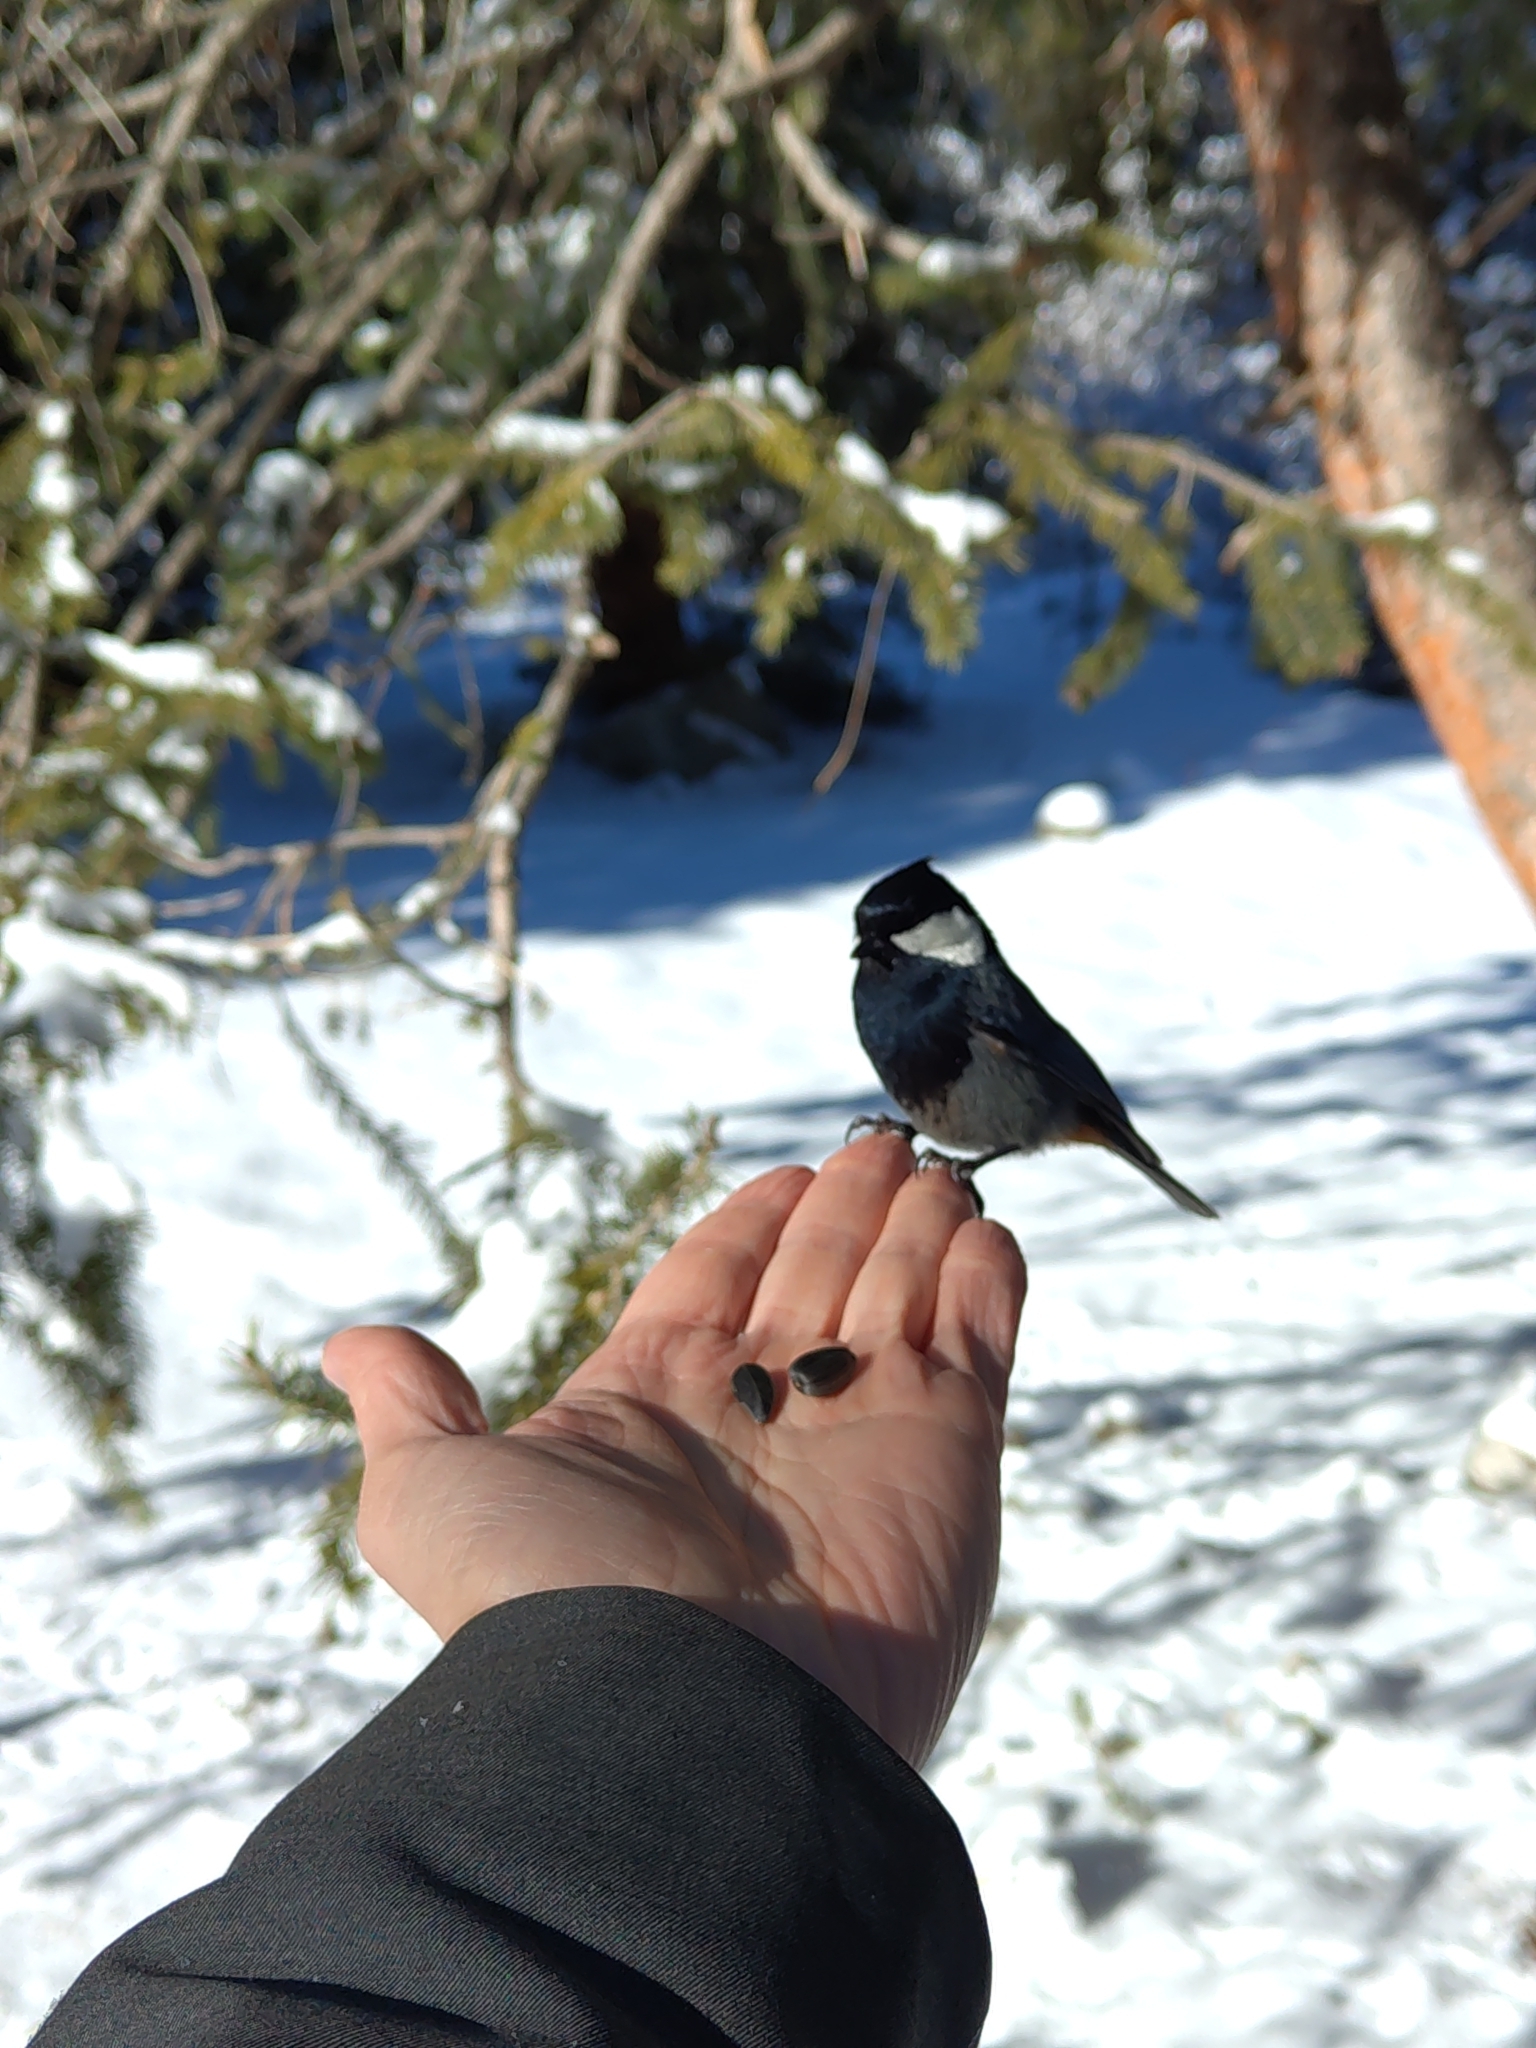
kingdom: Animalia
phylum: Chordata
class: Aves
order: Passeriformes
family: Paridae
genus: Periparus
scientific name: Periparus rufonuchalis
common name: Rufous-naped tit
